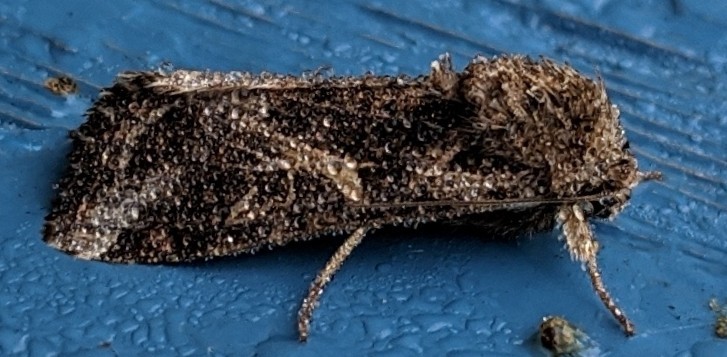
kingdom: Animalia
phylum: Arthropoda
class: Insecta
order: Lepidoptera
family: Noctuidae
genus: Spodoptera
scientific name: Spodoptera ornithogalli
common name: Yellow-striped armyworm
